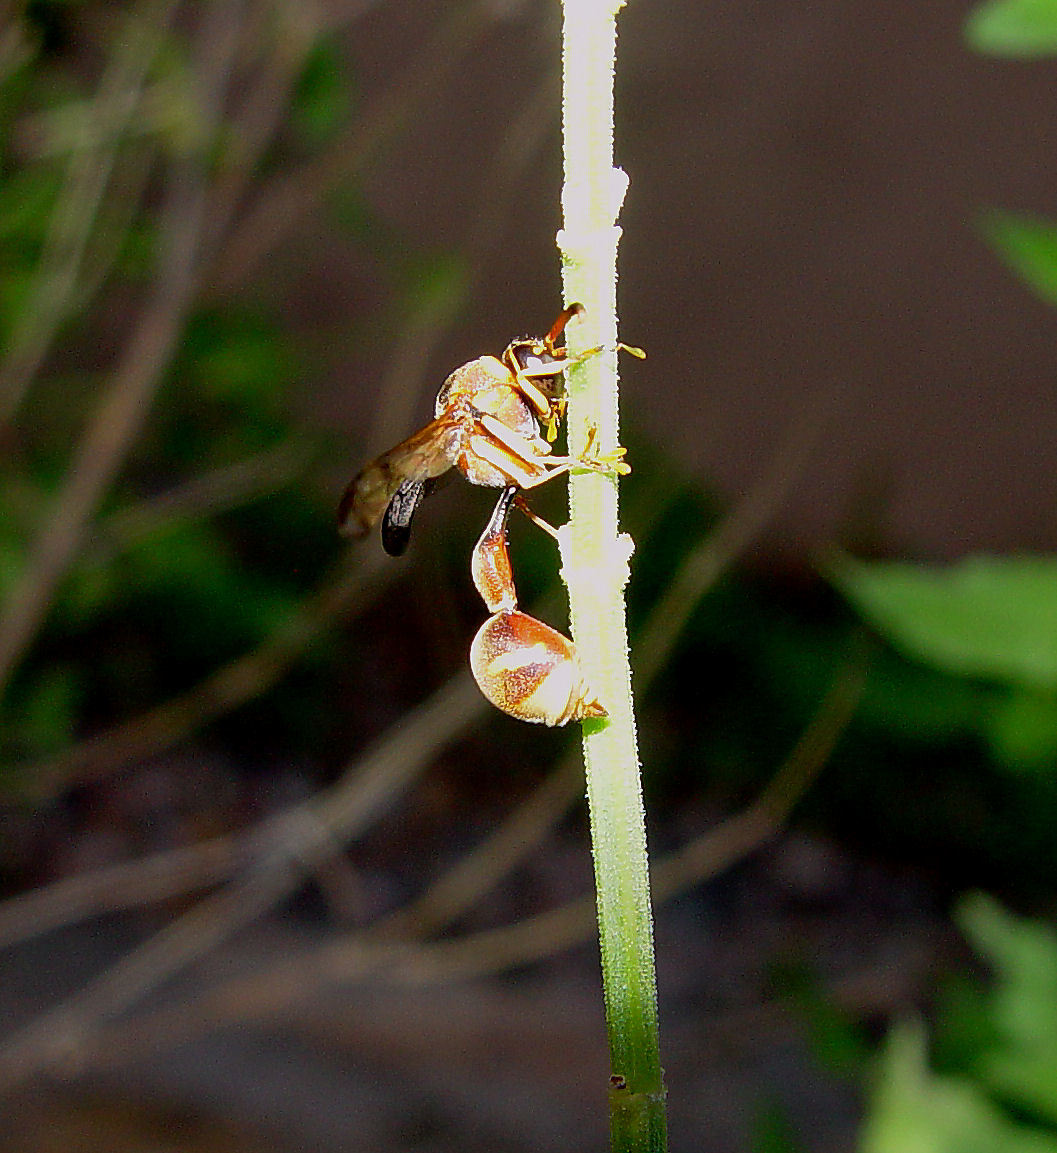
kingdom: Animalia
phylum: Arthropoda
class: Insecta
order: Hymenoptera
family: Vespidae
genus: Eumenes
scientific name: Eumenes americanus
